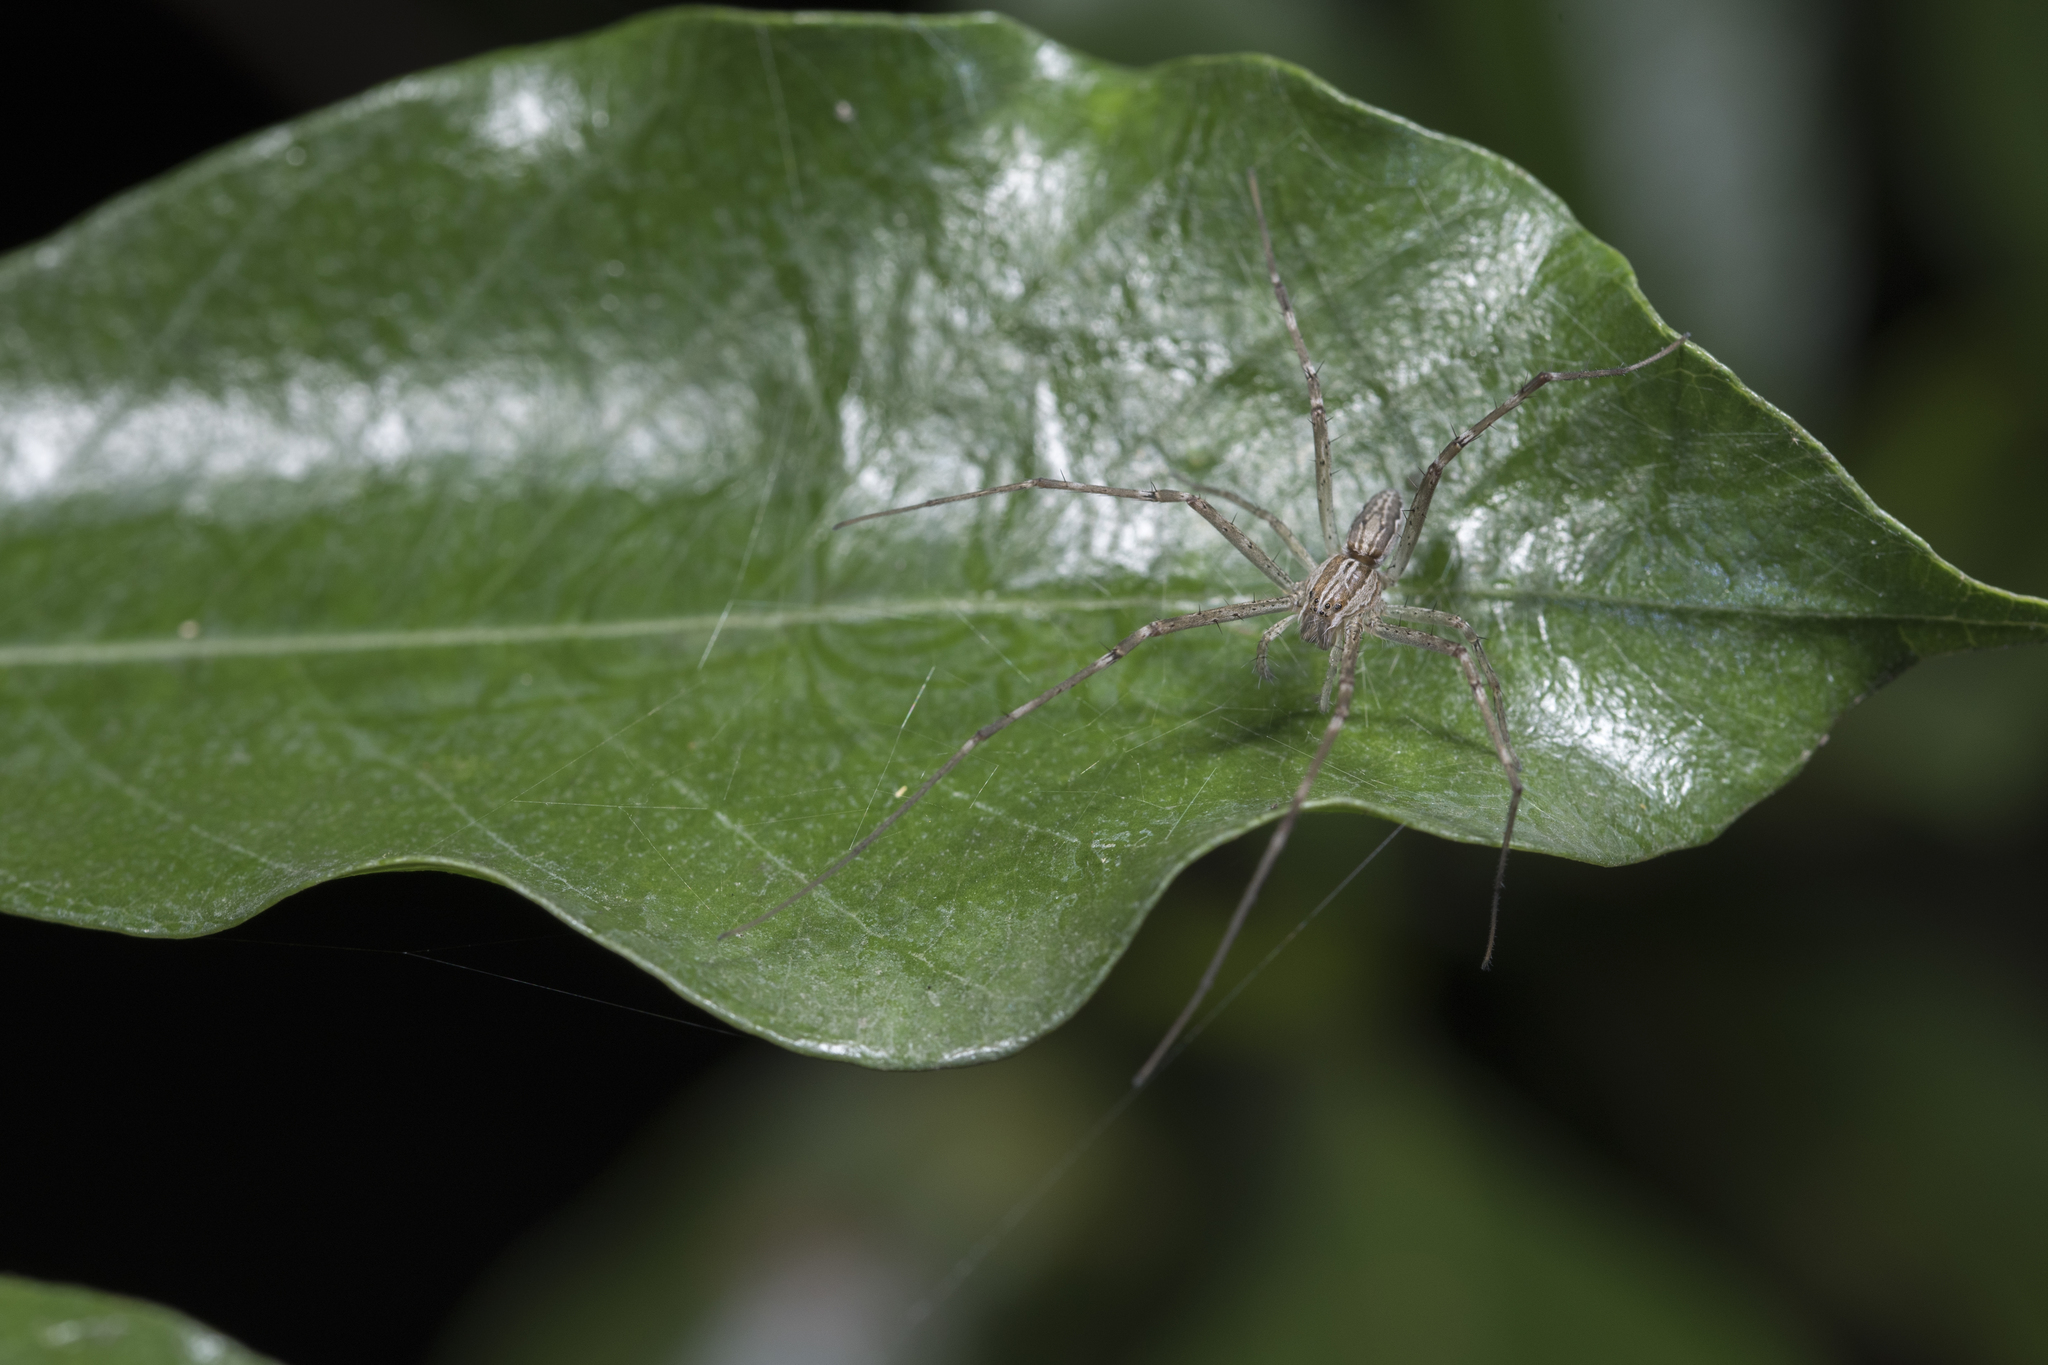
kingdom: Animalia
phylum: Arthropoda
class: Arachnida
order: Araneae
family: Pisauridae
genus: Hygropoda
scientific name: Hygropoda higenaga
